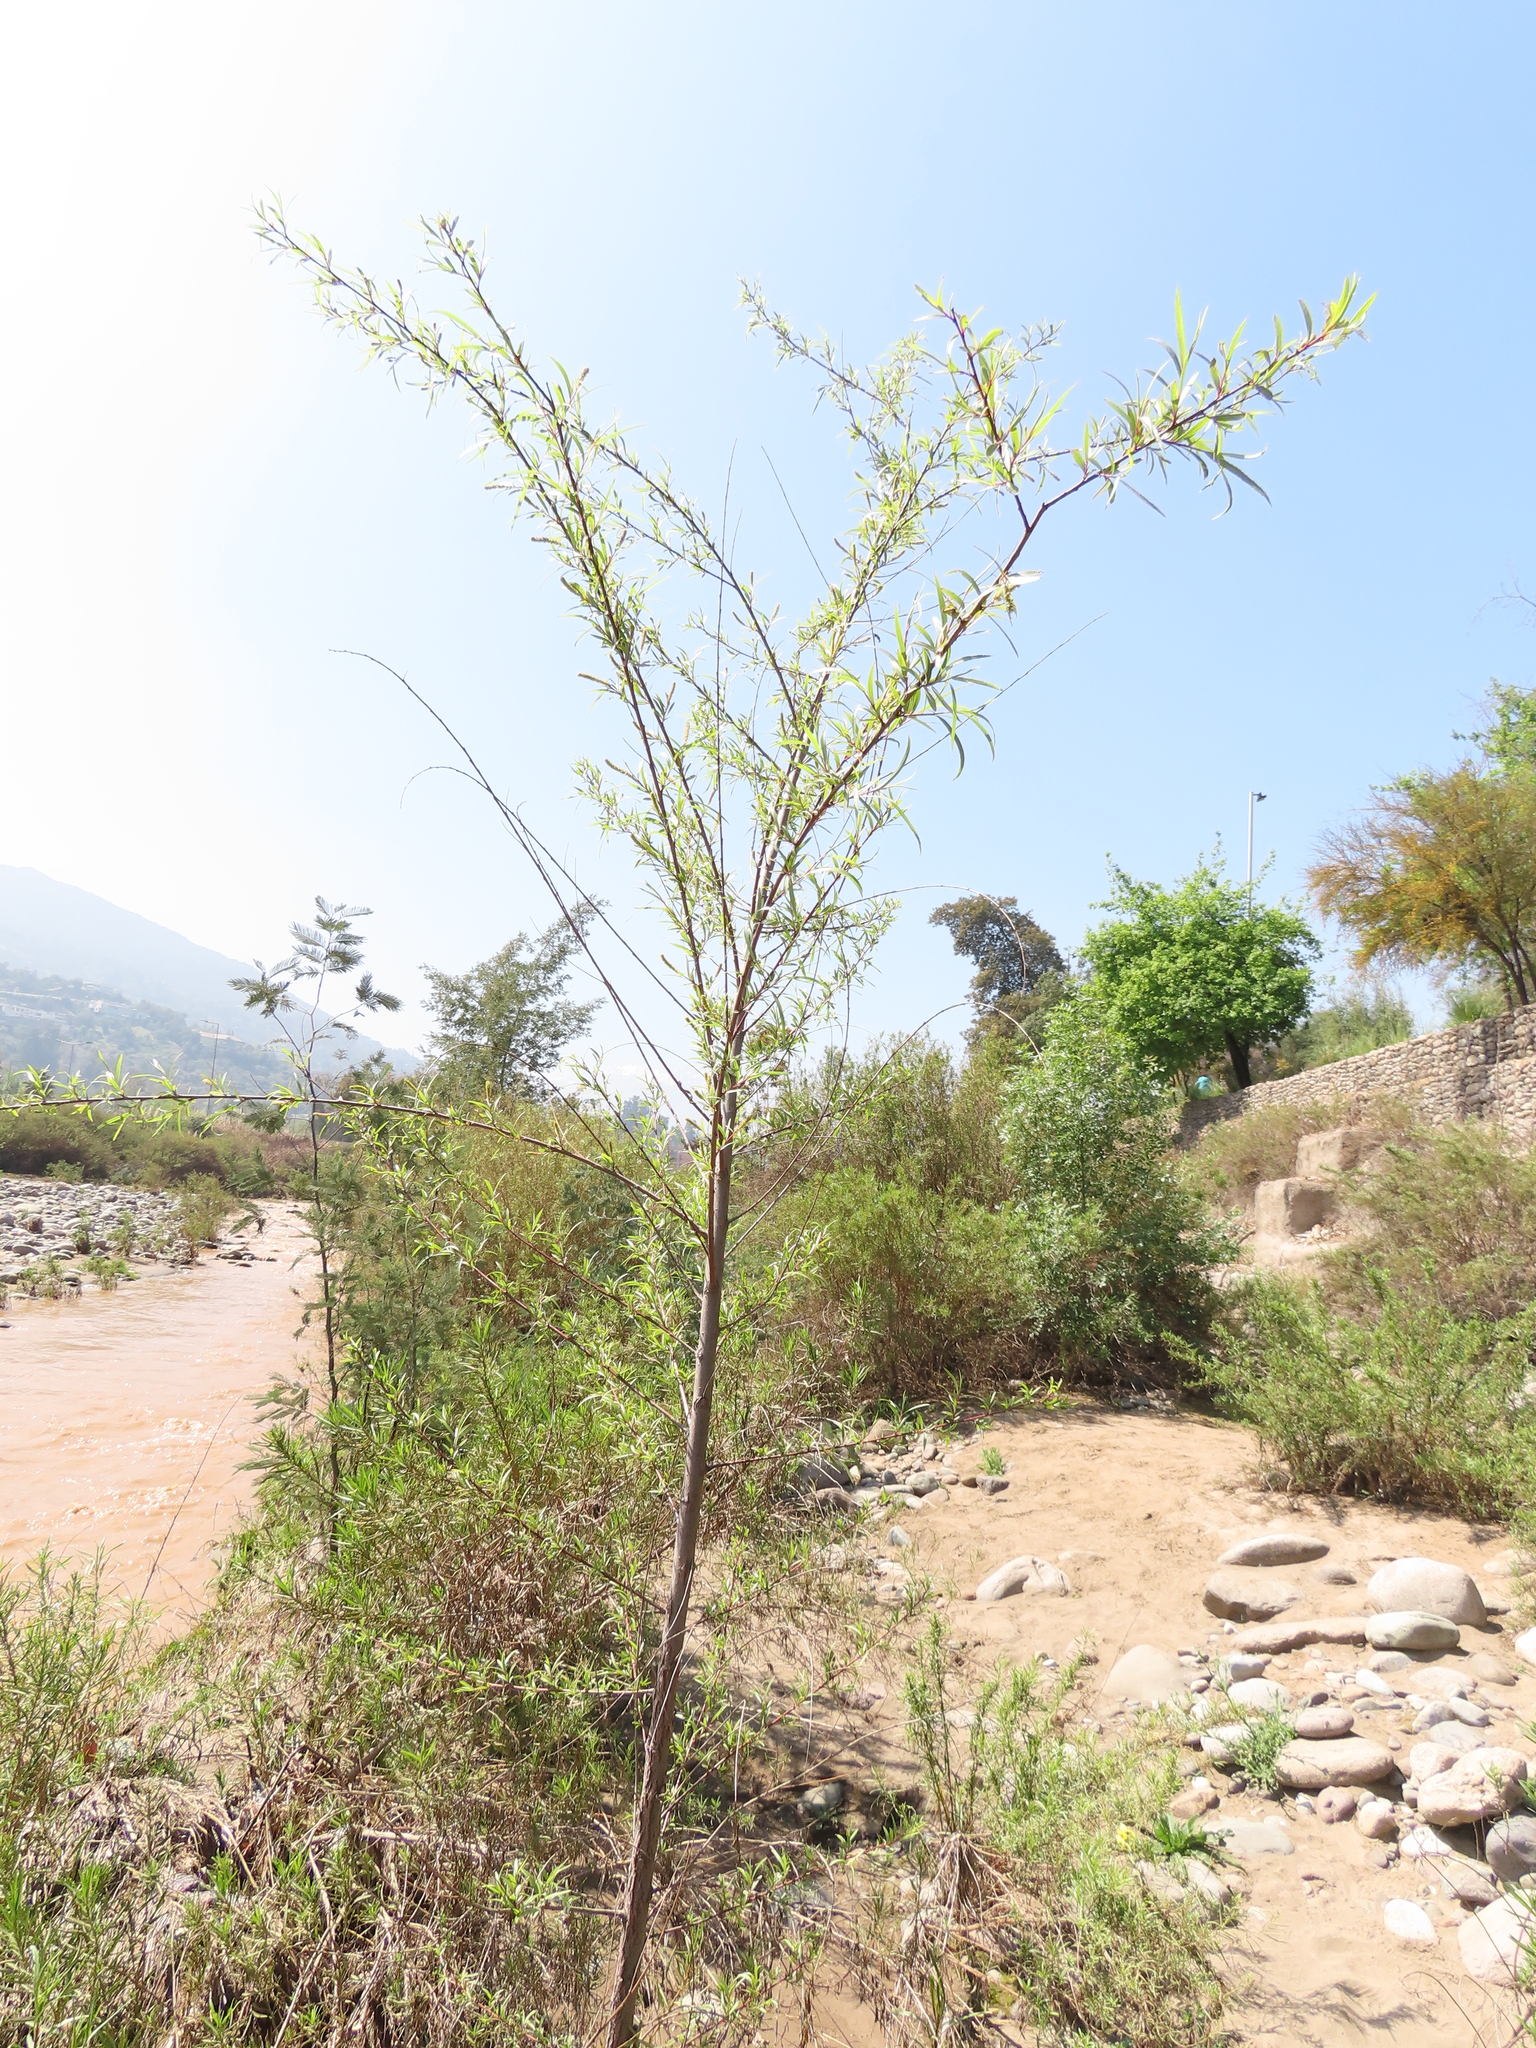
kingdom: Plantae
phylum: Tracheophyta
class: Magnoliopsida
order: Malpighiales
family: Salicaceae
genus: Salix
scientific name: Salix humboldtiana
